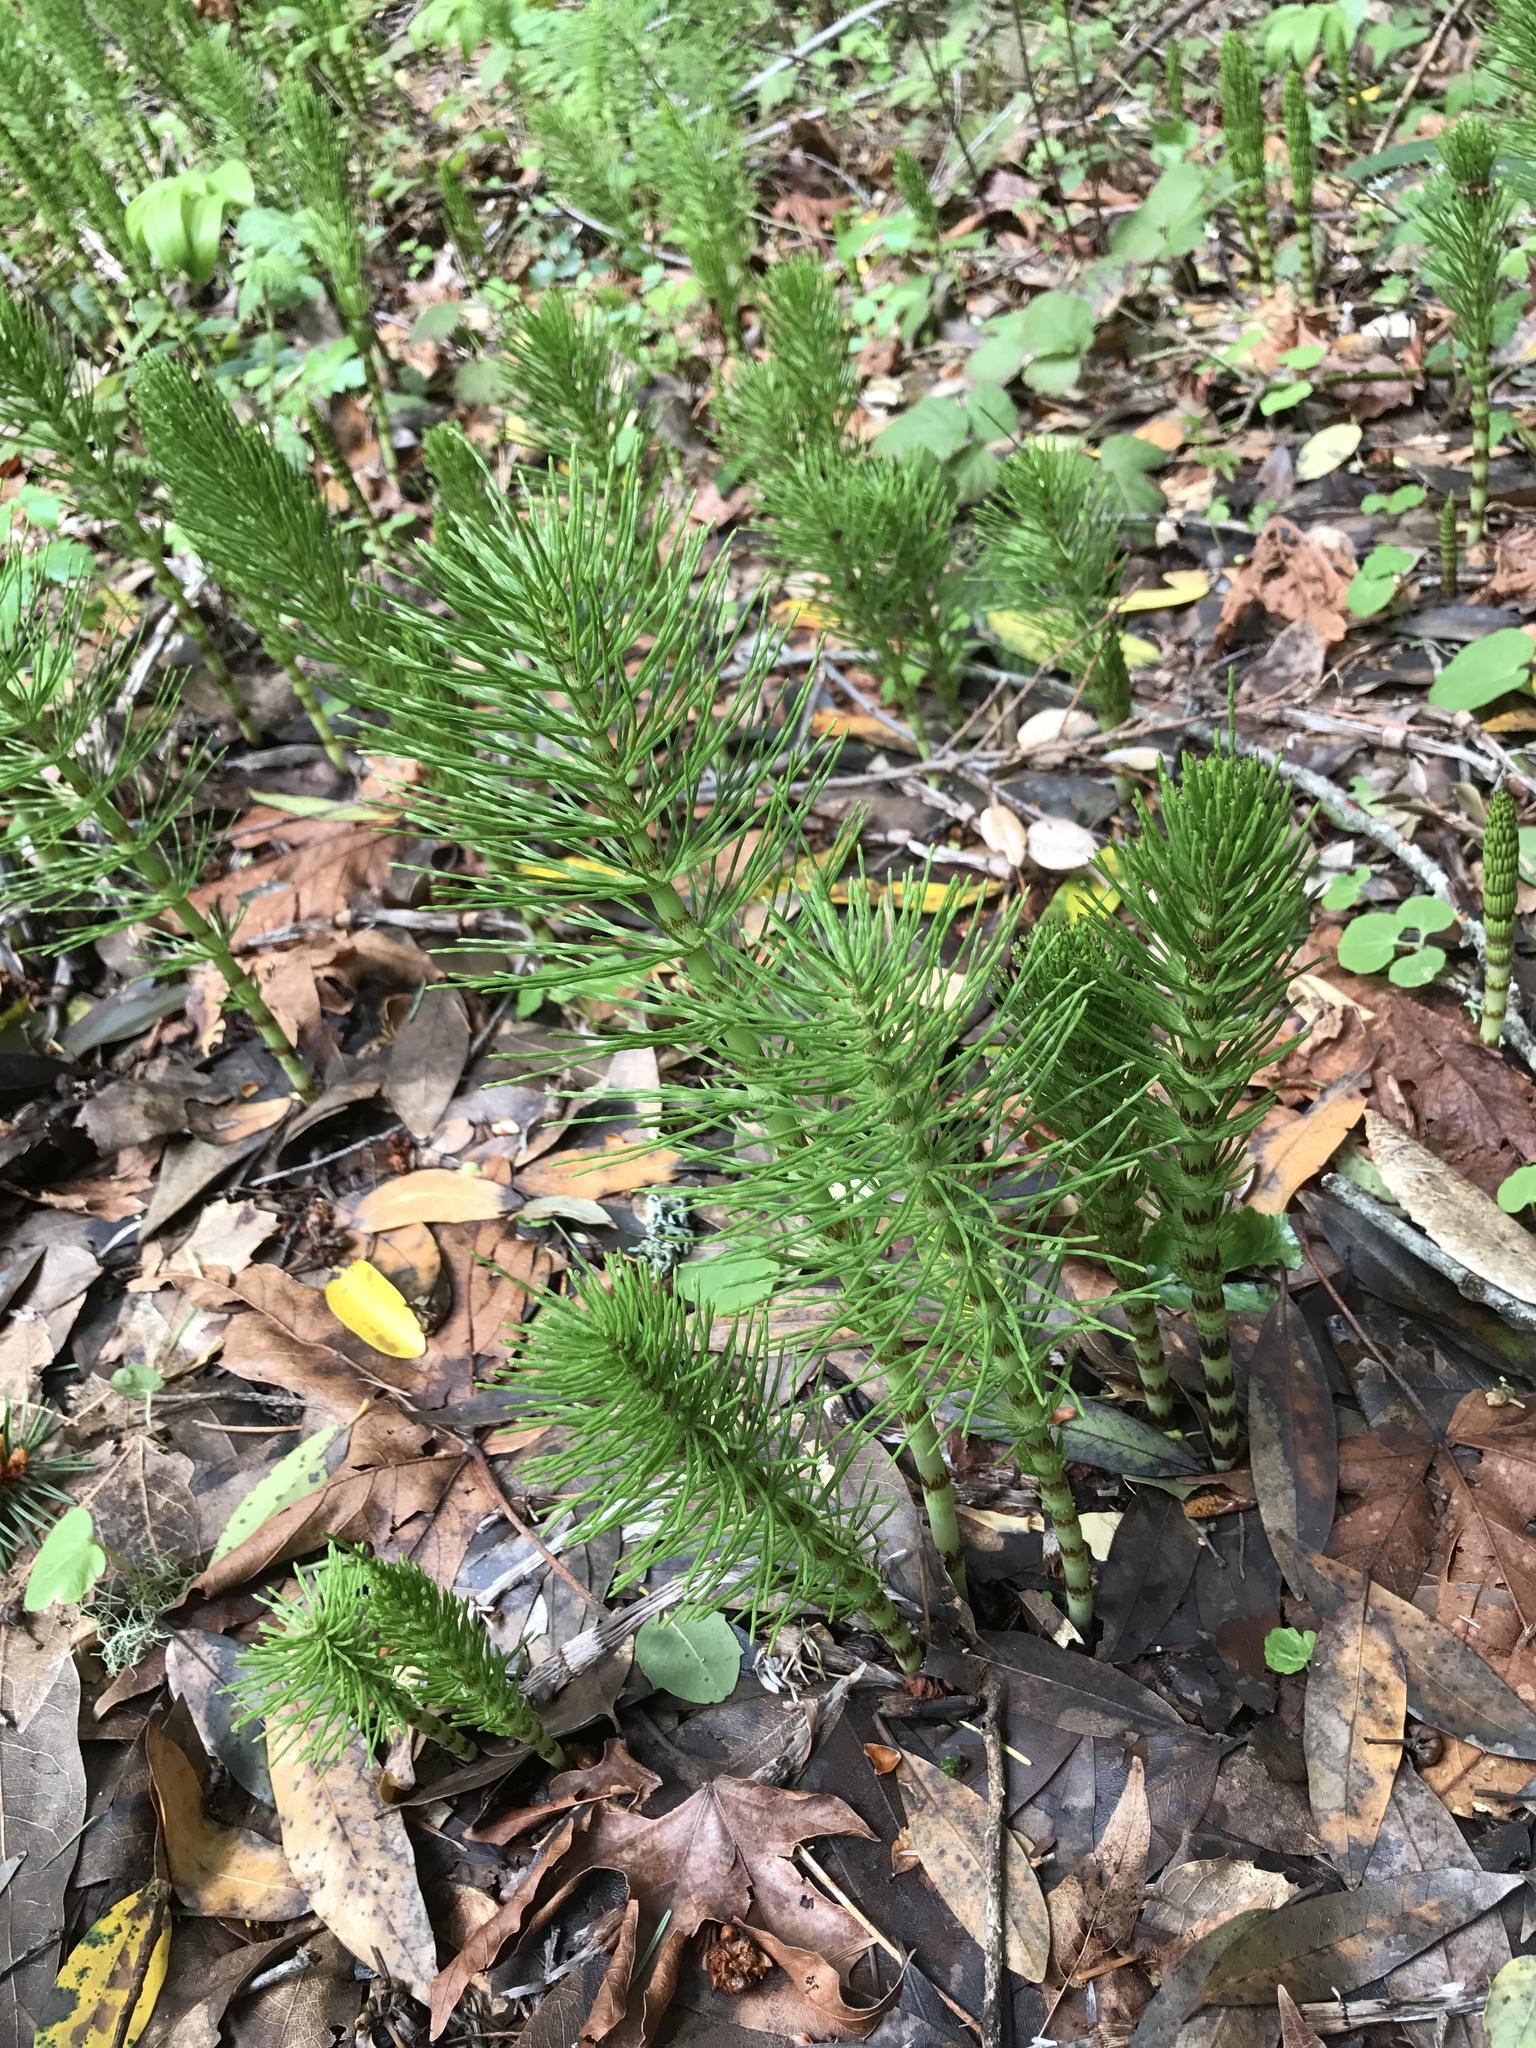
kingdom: Plantae
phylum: Tracheophyta
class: Polypodiopsida
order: Equisetales
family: Equisetaceae
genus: Equisetum
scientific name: Equisetum telmateia
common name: Great horsetail
